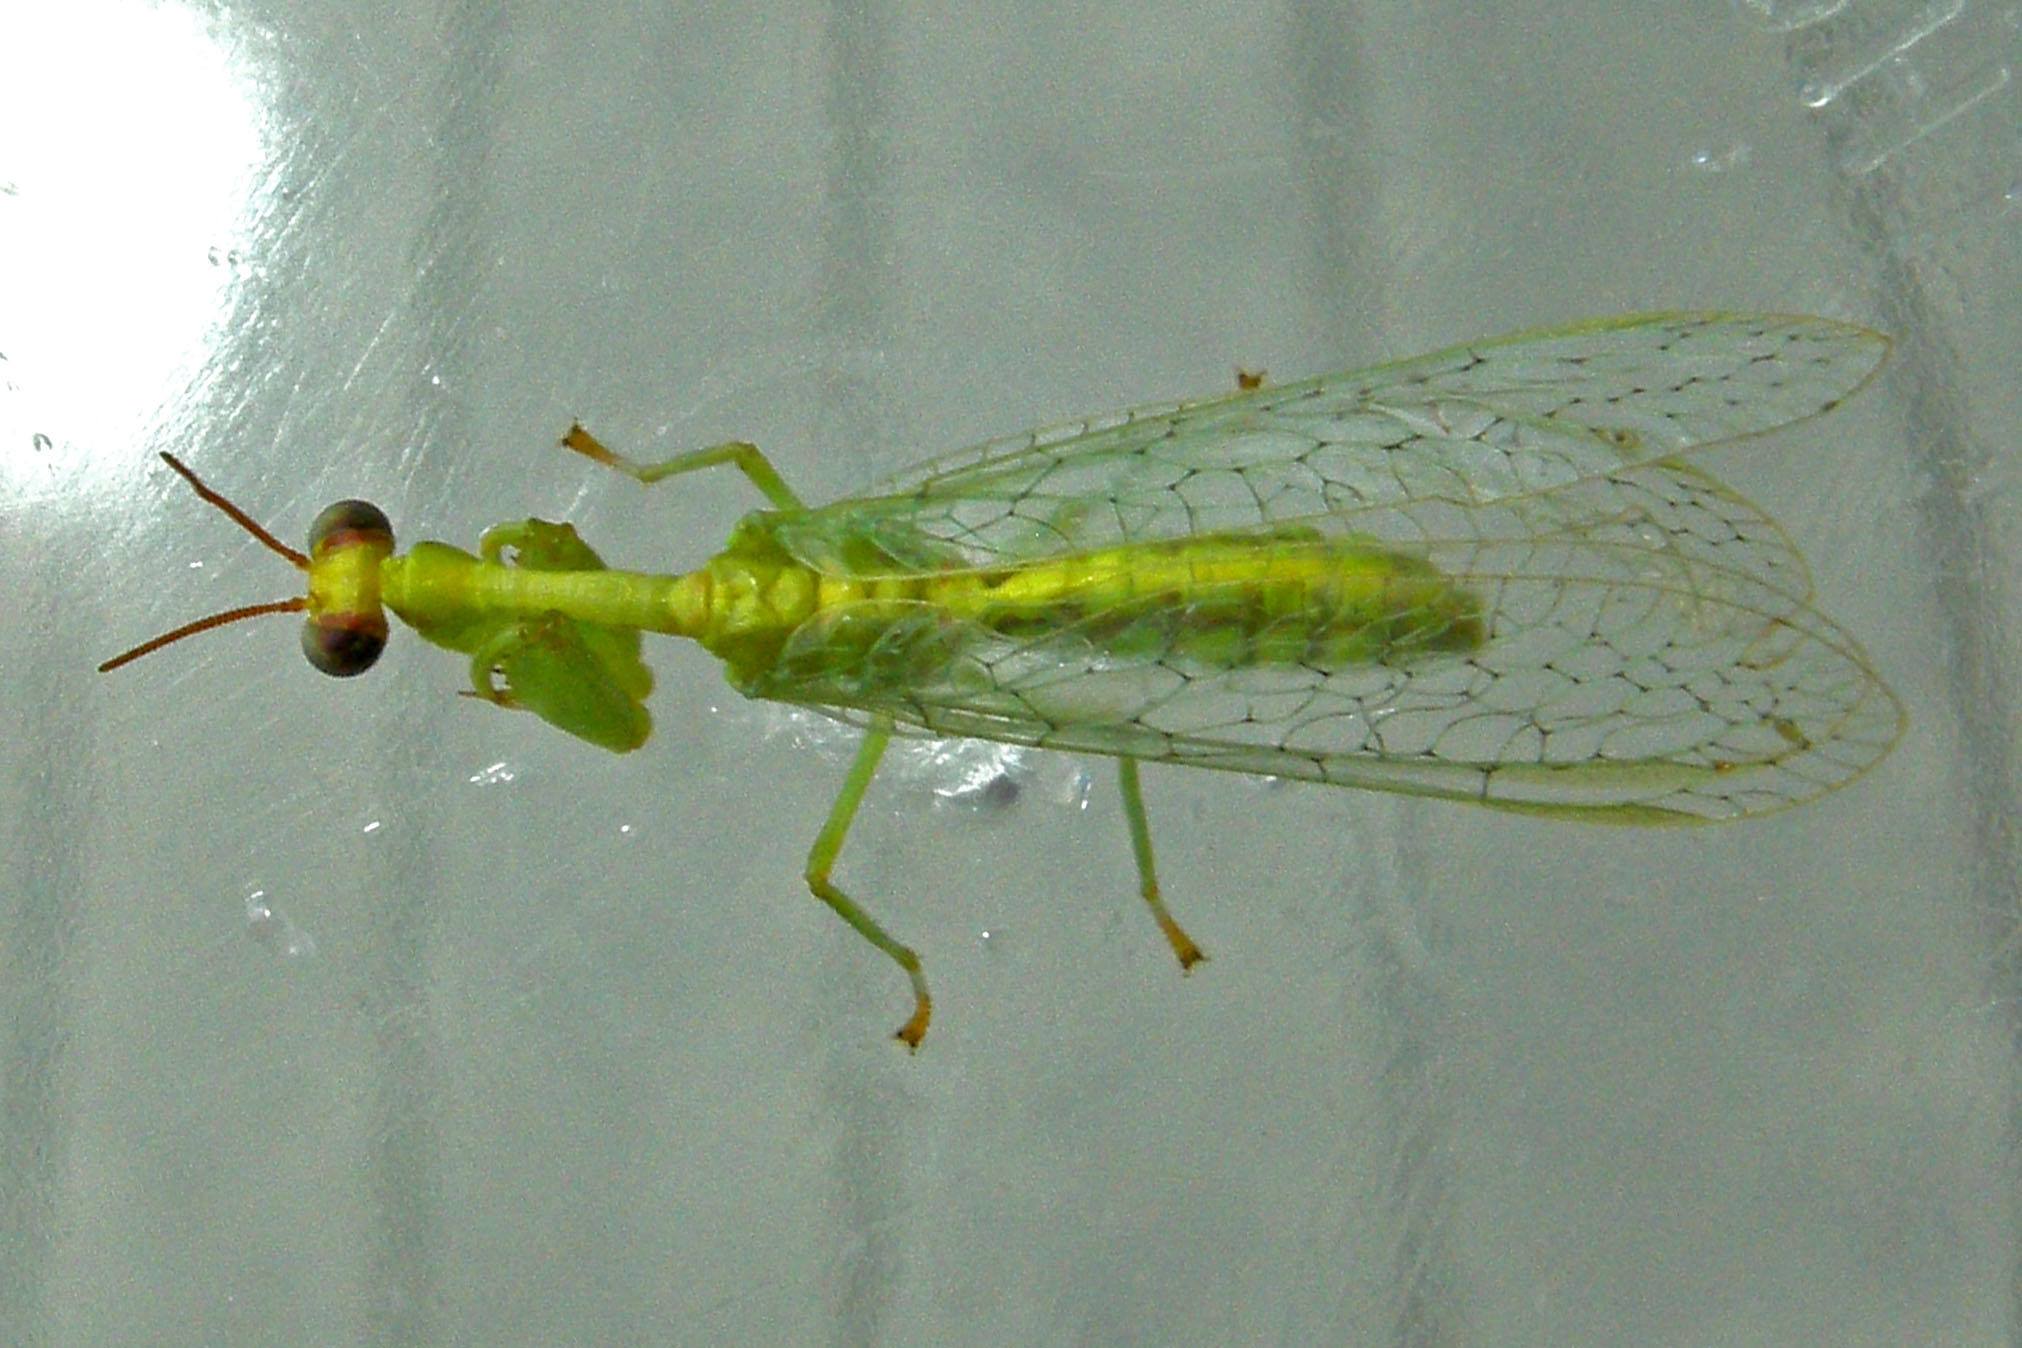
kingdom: Animalia
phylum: Arthropoda
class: Insecta
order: Neuroptera
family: Mantispidae
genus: Zeugomantispa
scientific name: Zeugomantispa minuta
